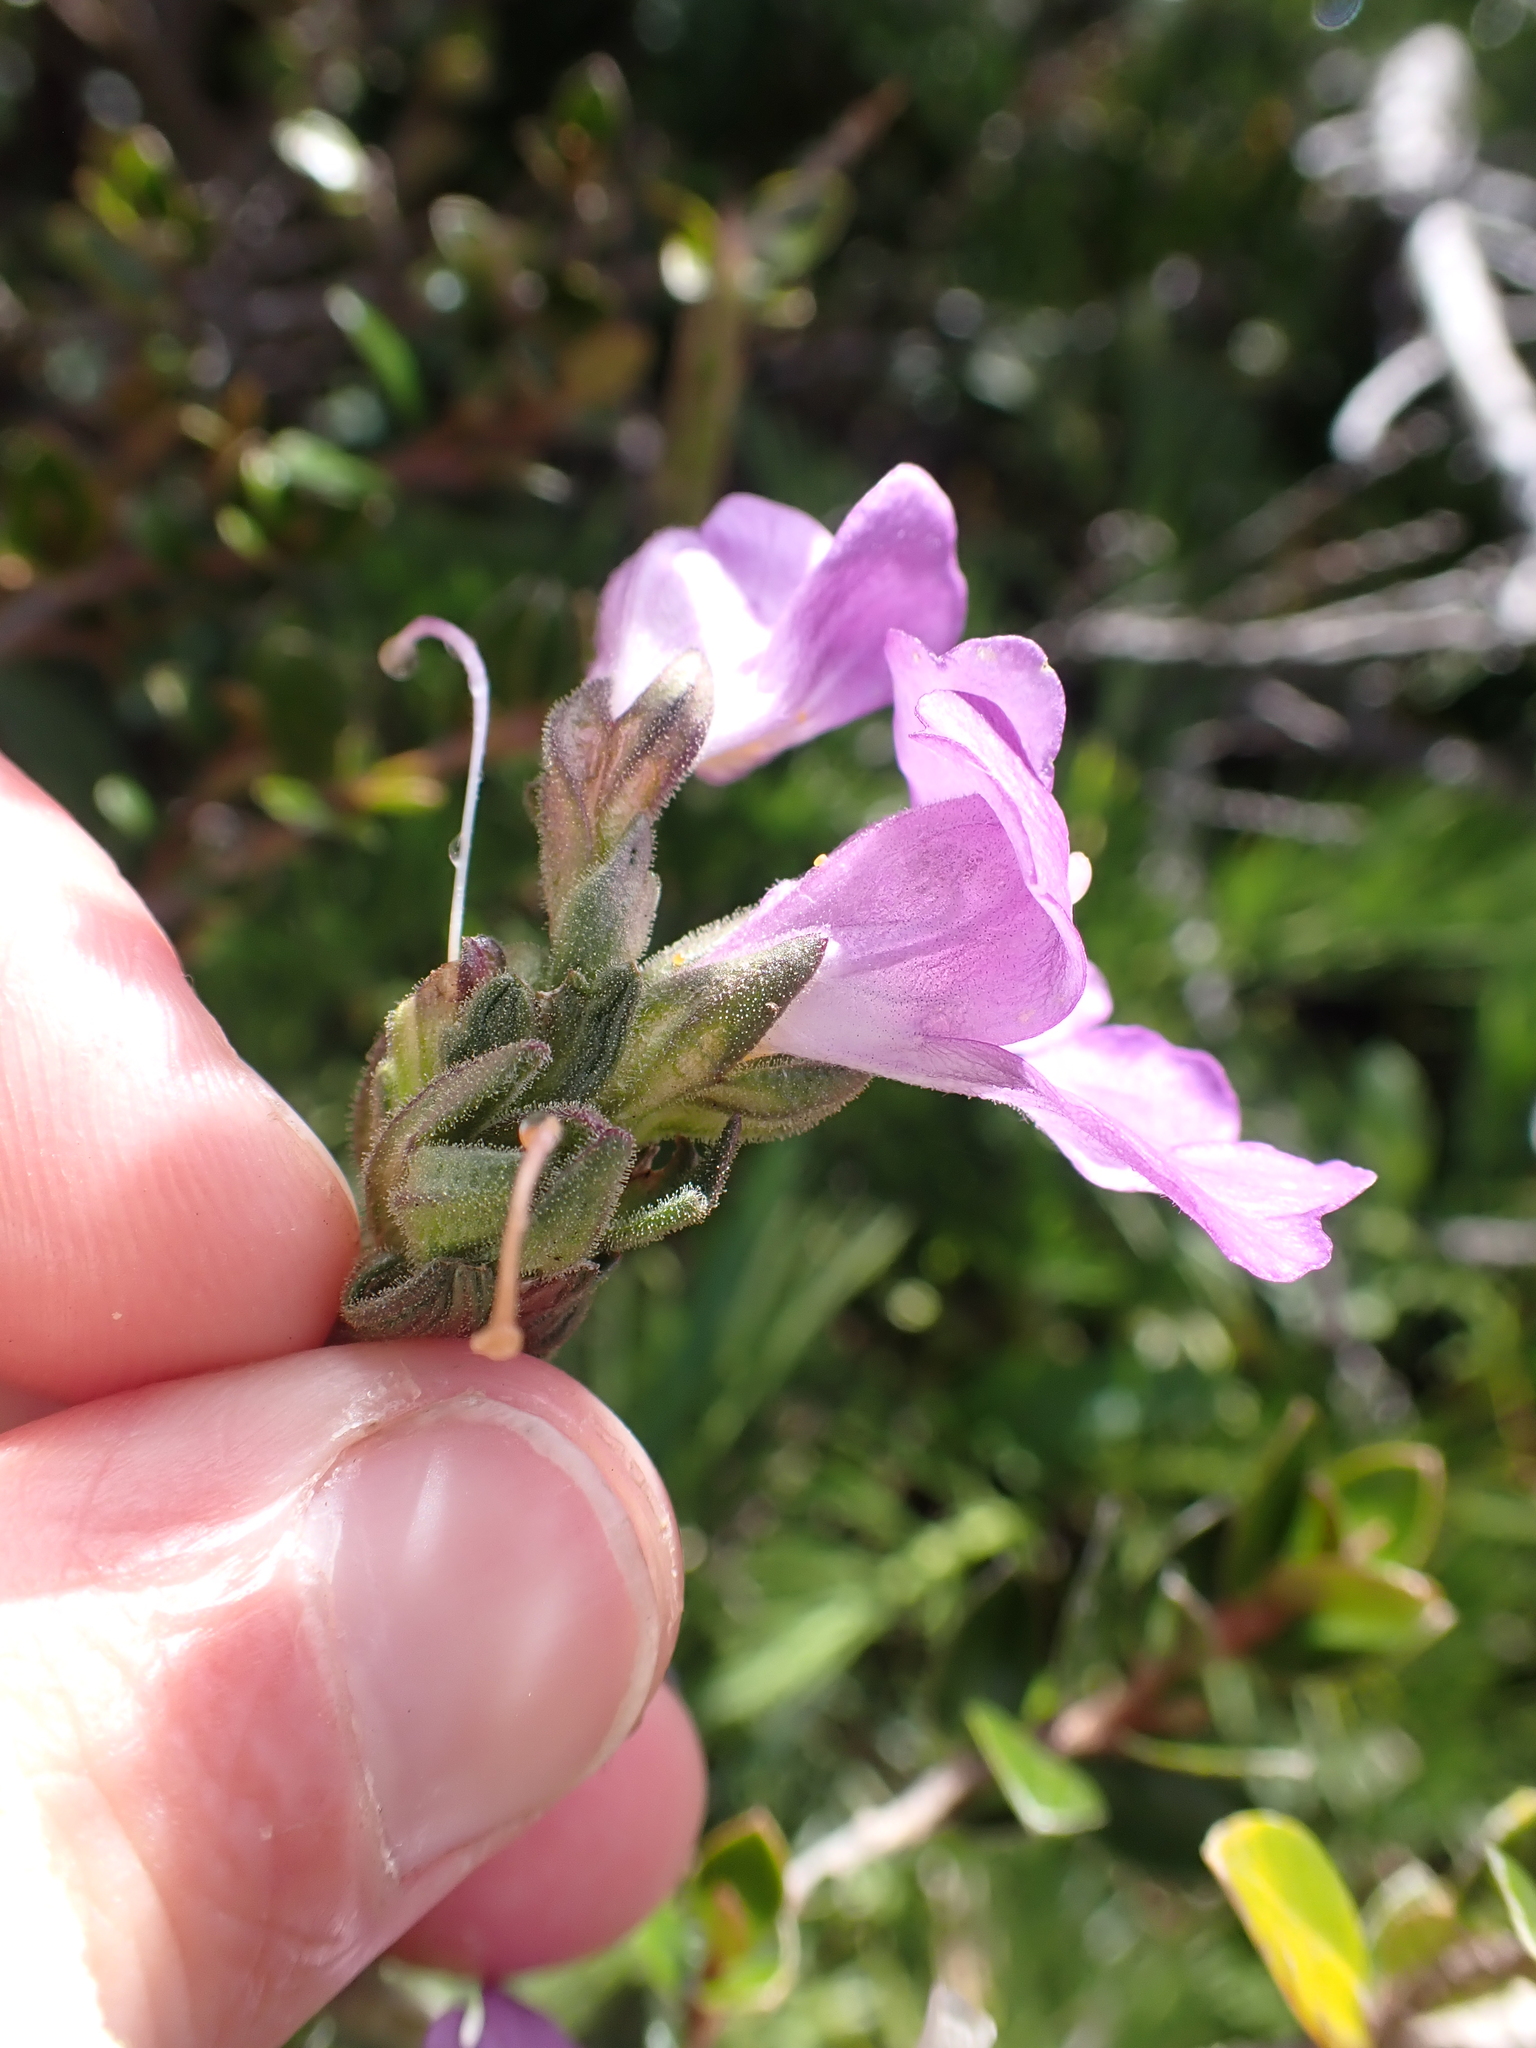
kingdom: Plantae
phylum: Tracheophyta
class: Magnoliopsida
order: Lamiales
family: Orobanchaceae
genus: Euphrasia
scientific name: Euphrasia collina
